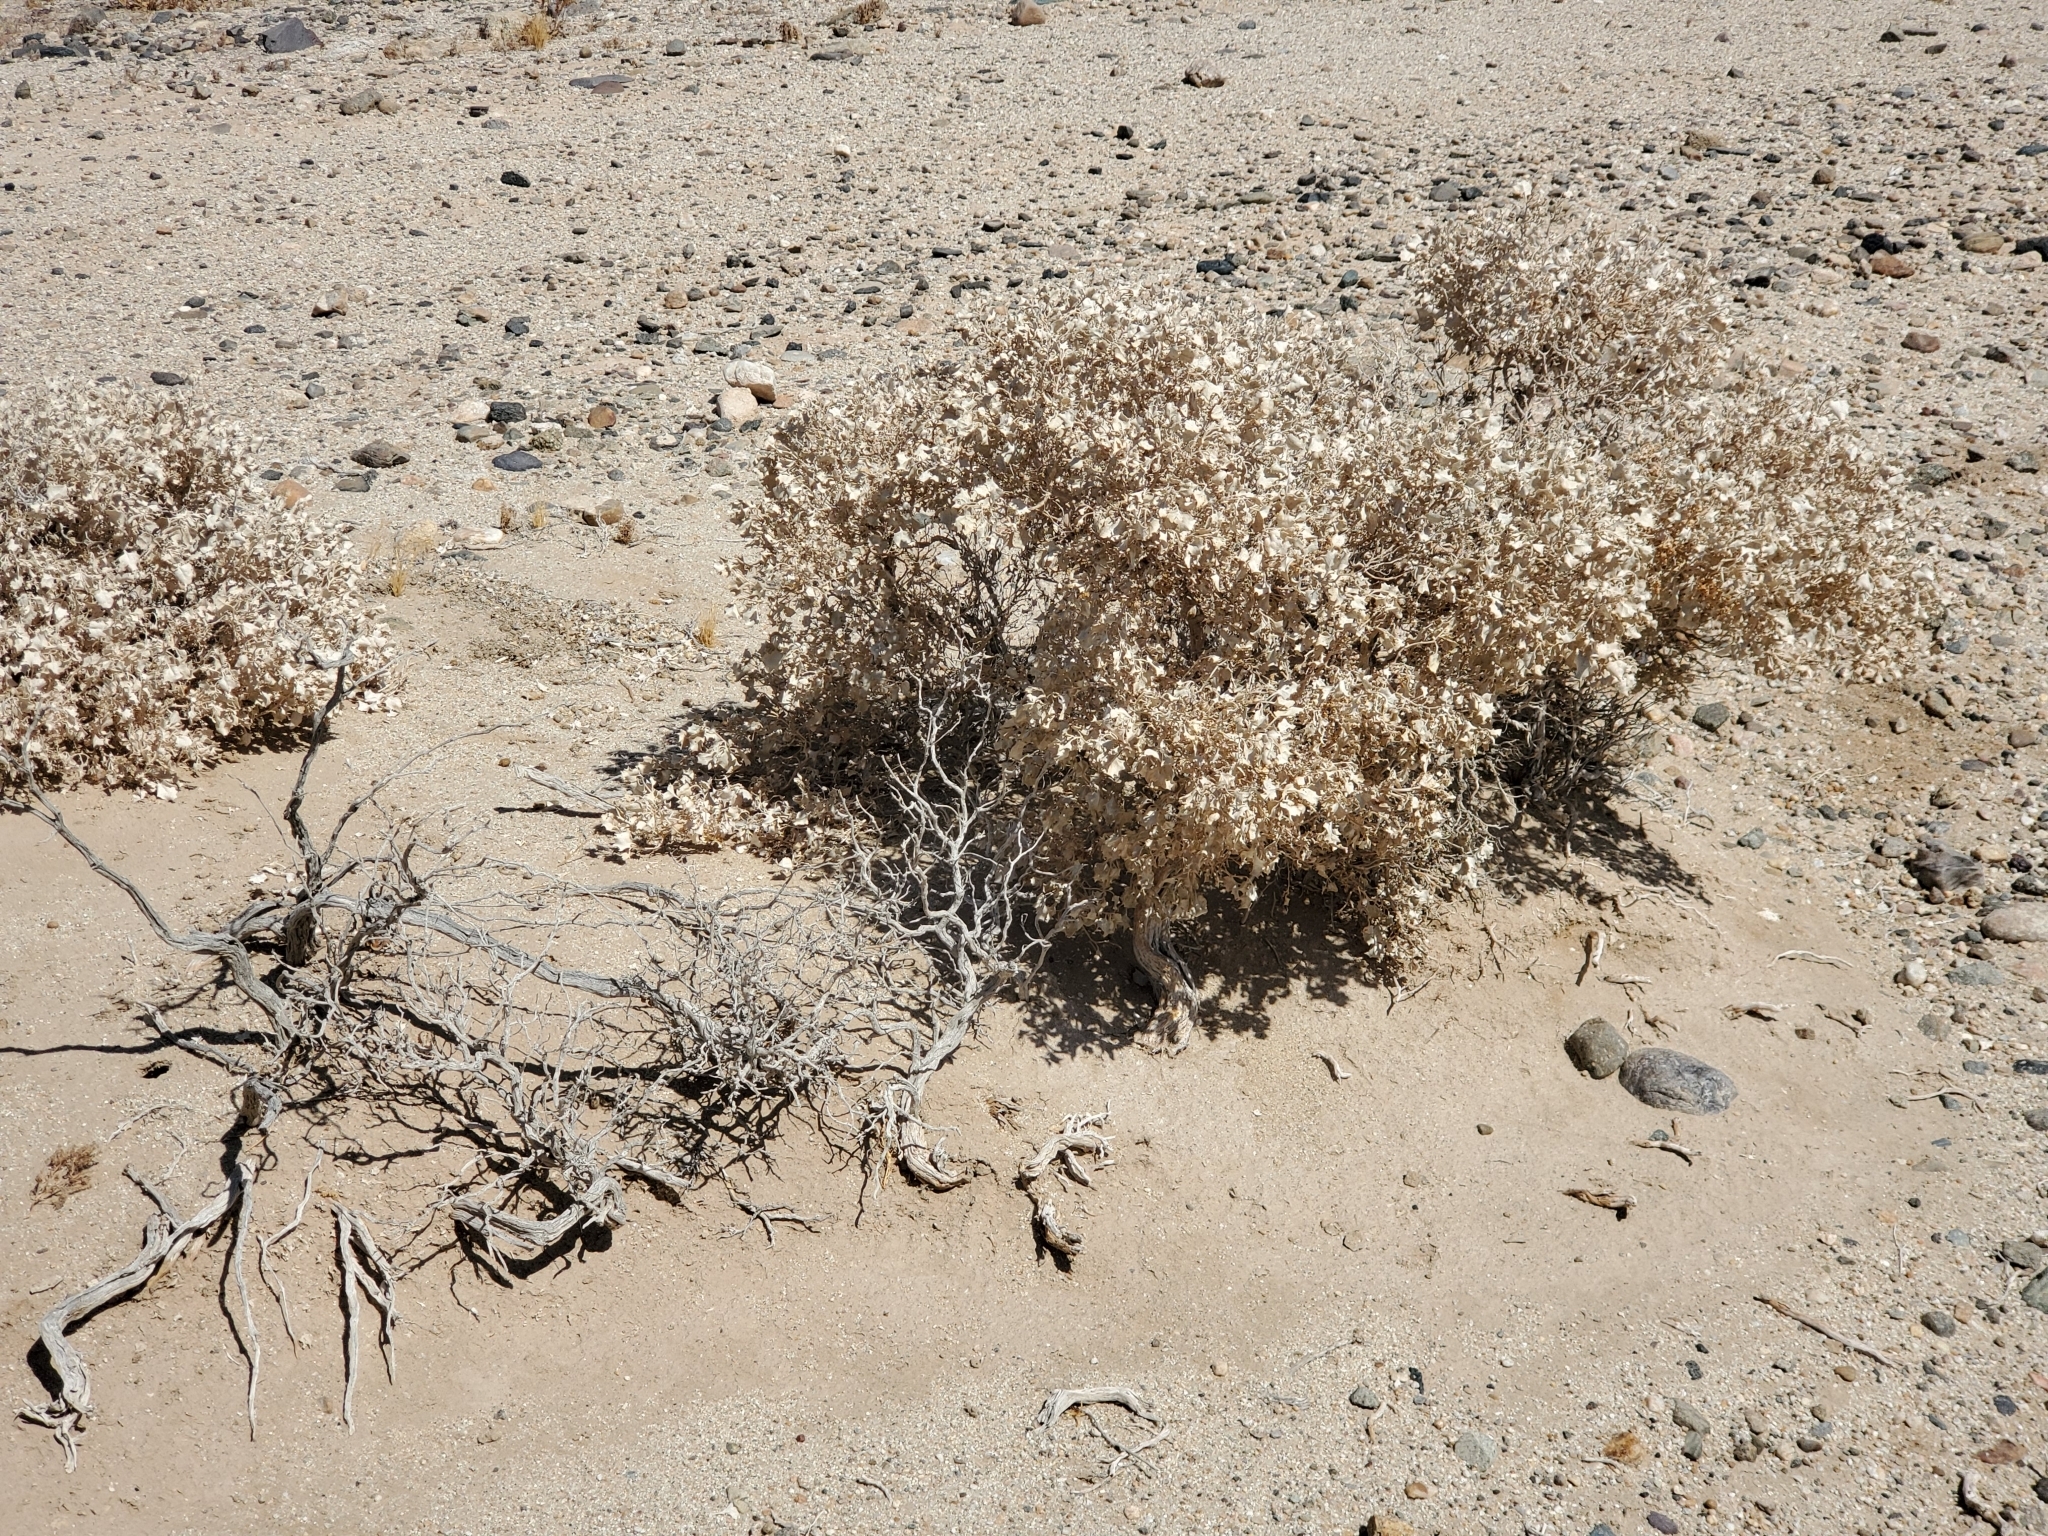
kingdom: Plantae
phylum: Tracheophyta
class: Magnoliopsida
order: Caryophyllales
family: Amaranthaceae
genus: Atriplex
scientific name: Atriplex hymenelytra
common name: Desert-holly
